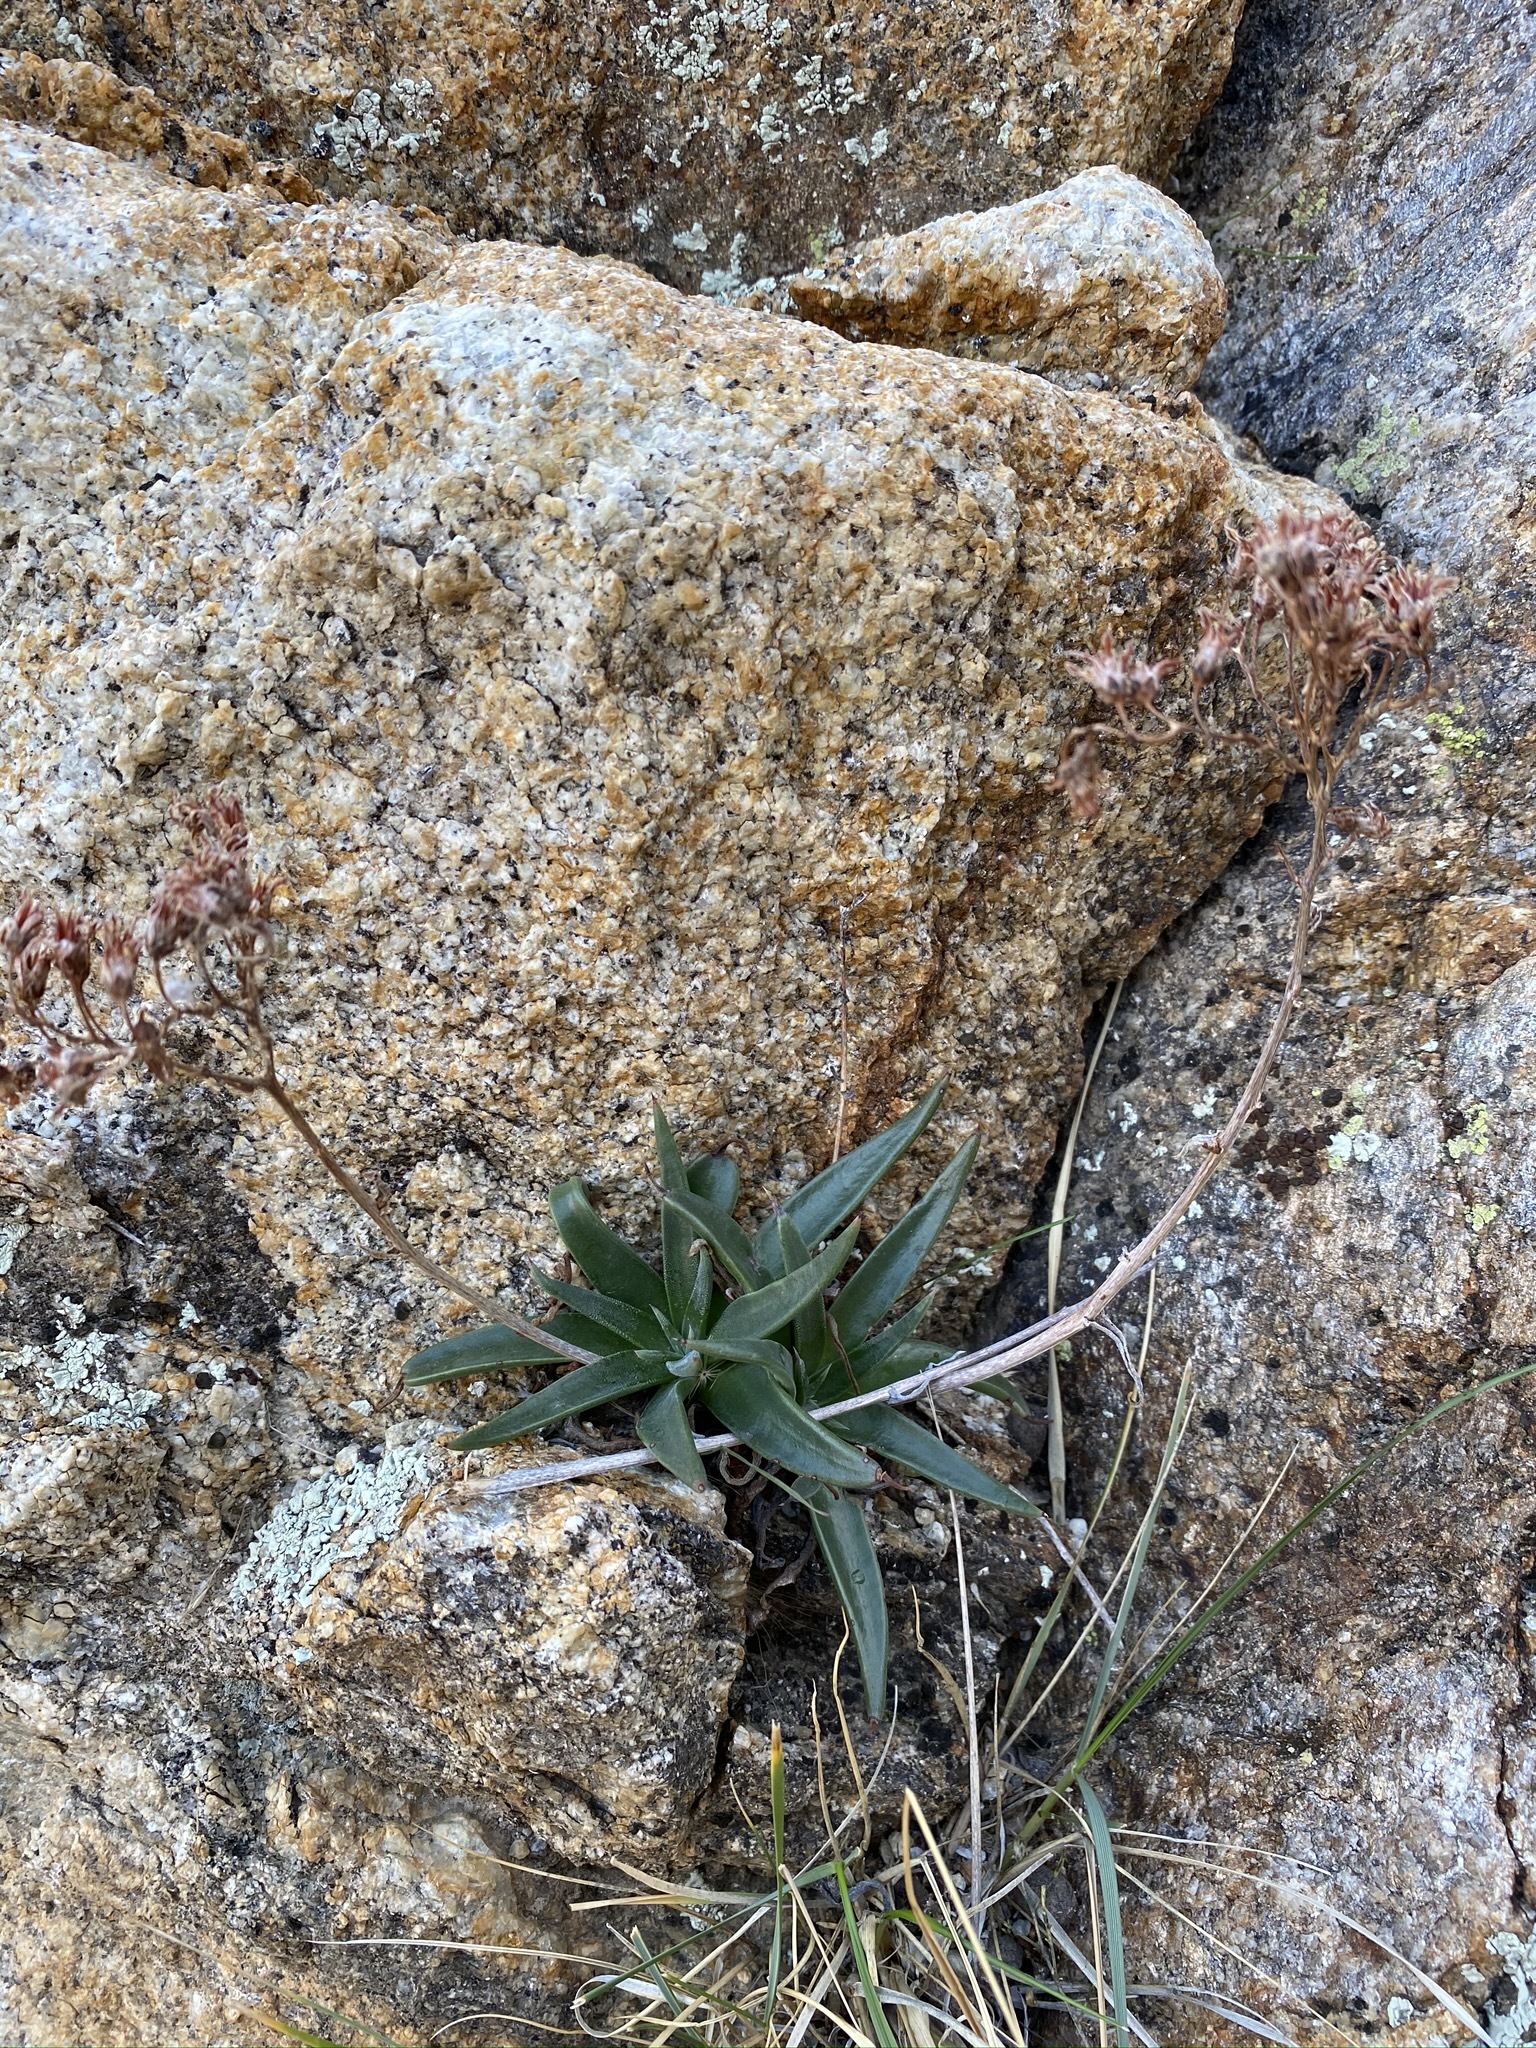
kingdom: Plantae
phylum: Tracheophyta
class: Magnoliopsida
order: Saxifragales
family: Crassulaceae
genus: Dudleya
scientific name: Dudleya saxosa
